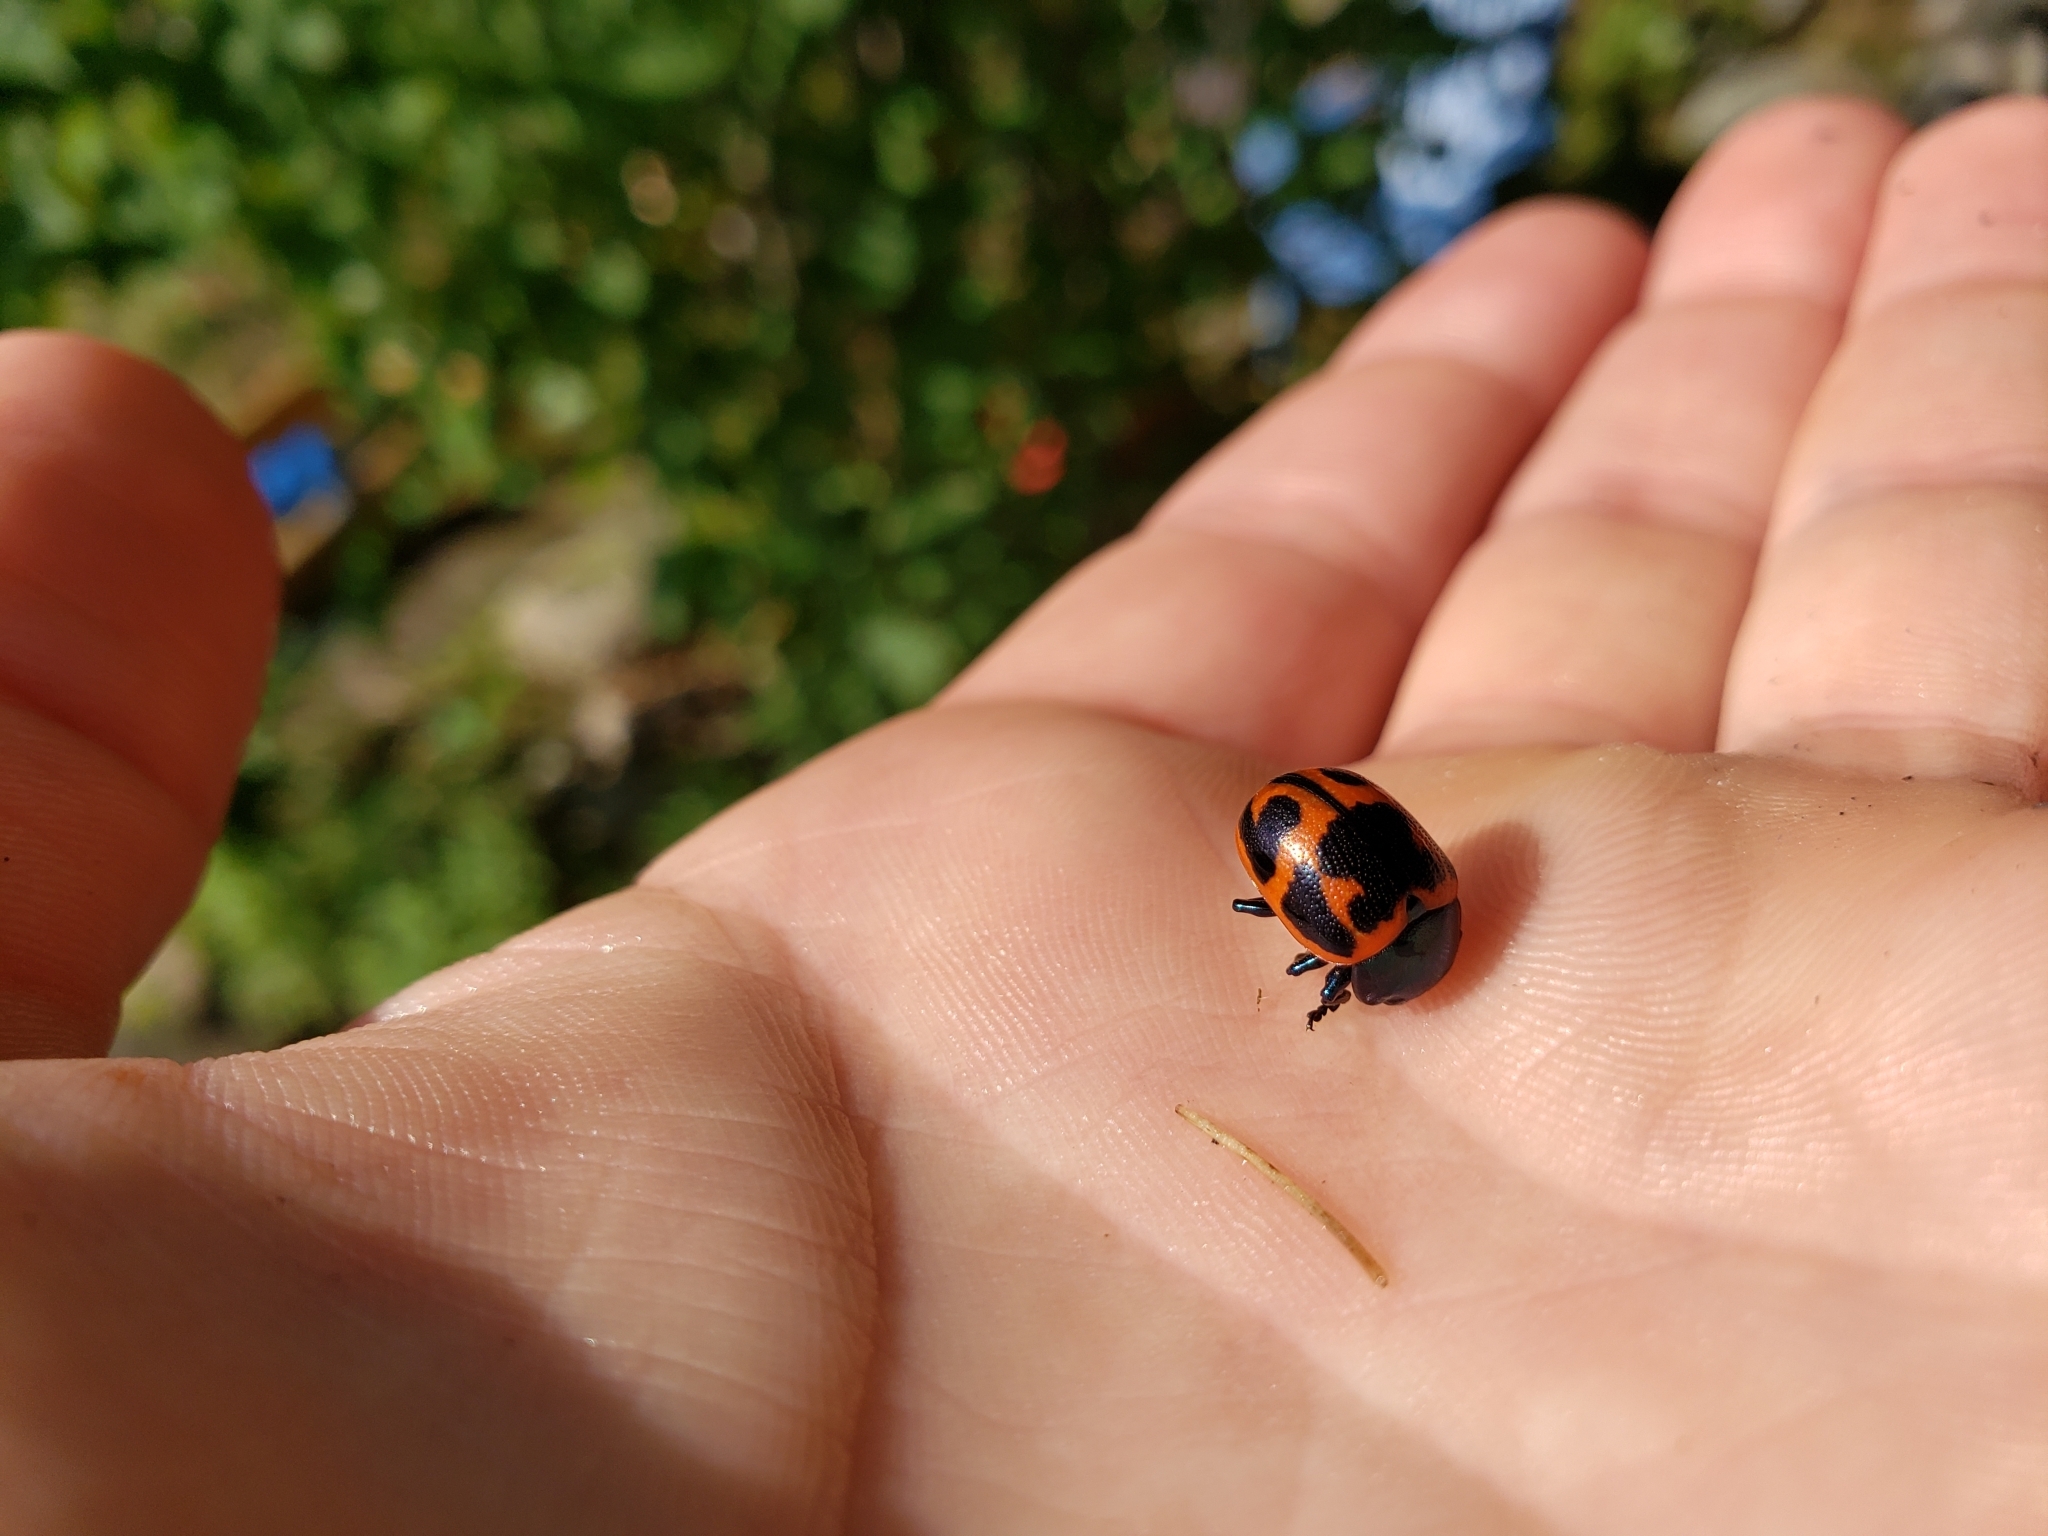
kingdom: Animalia
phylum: Arthropoda
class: Insecta
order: Coleoptera
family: Chrysomelidae
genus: Labidomera
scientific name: Labidomera clivicollis
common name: Swamp milkweed leaf beetle
